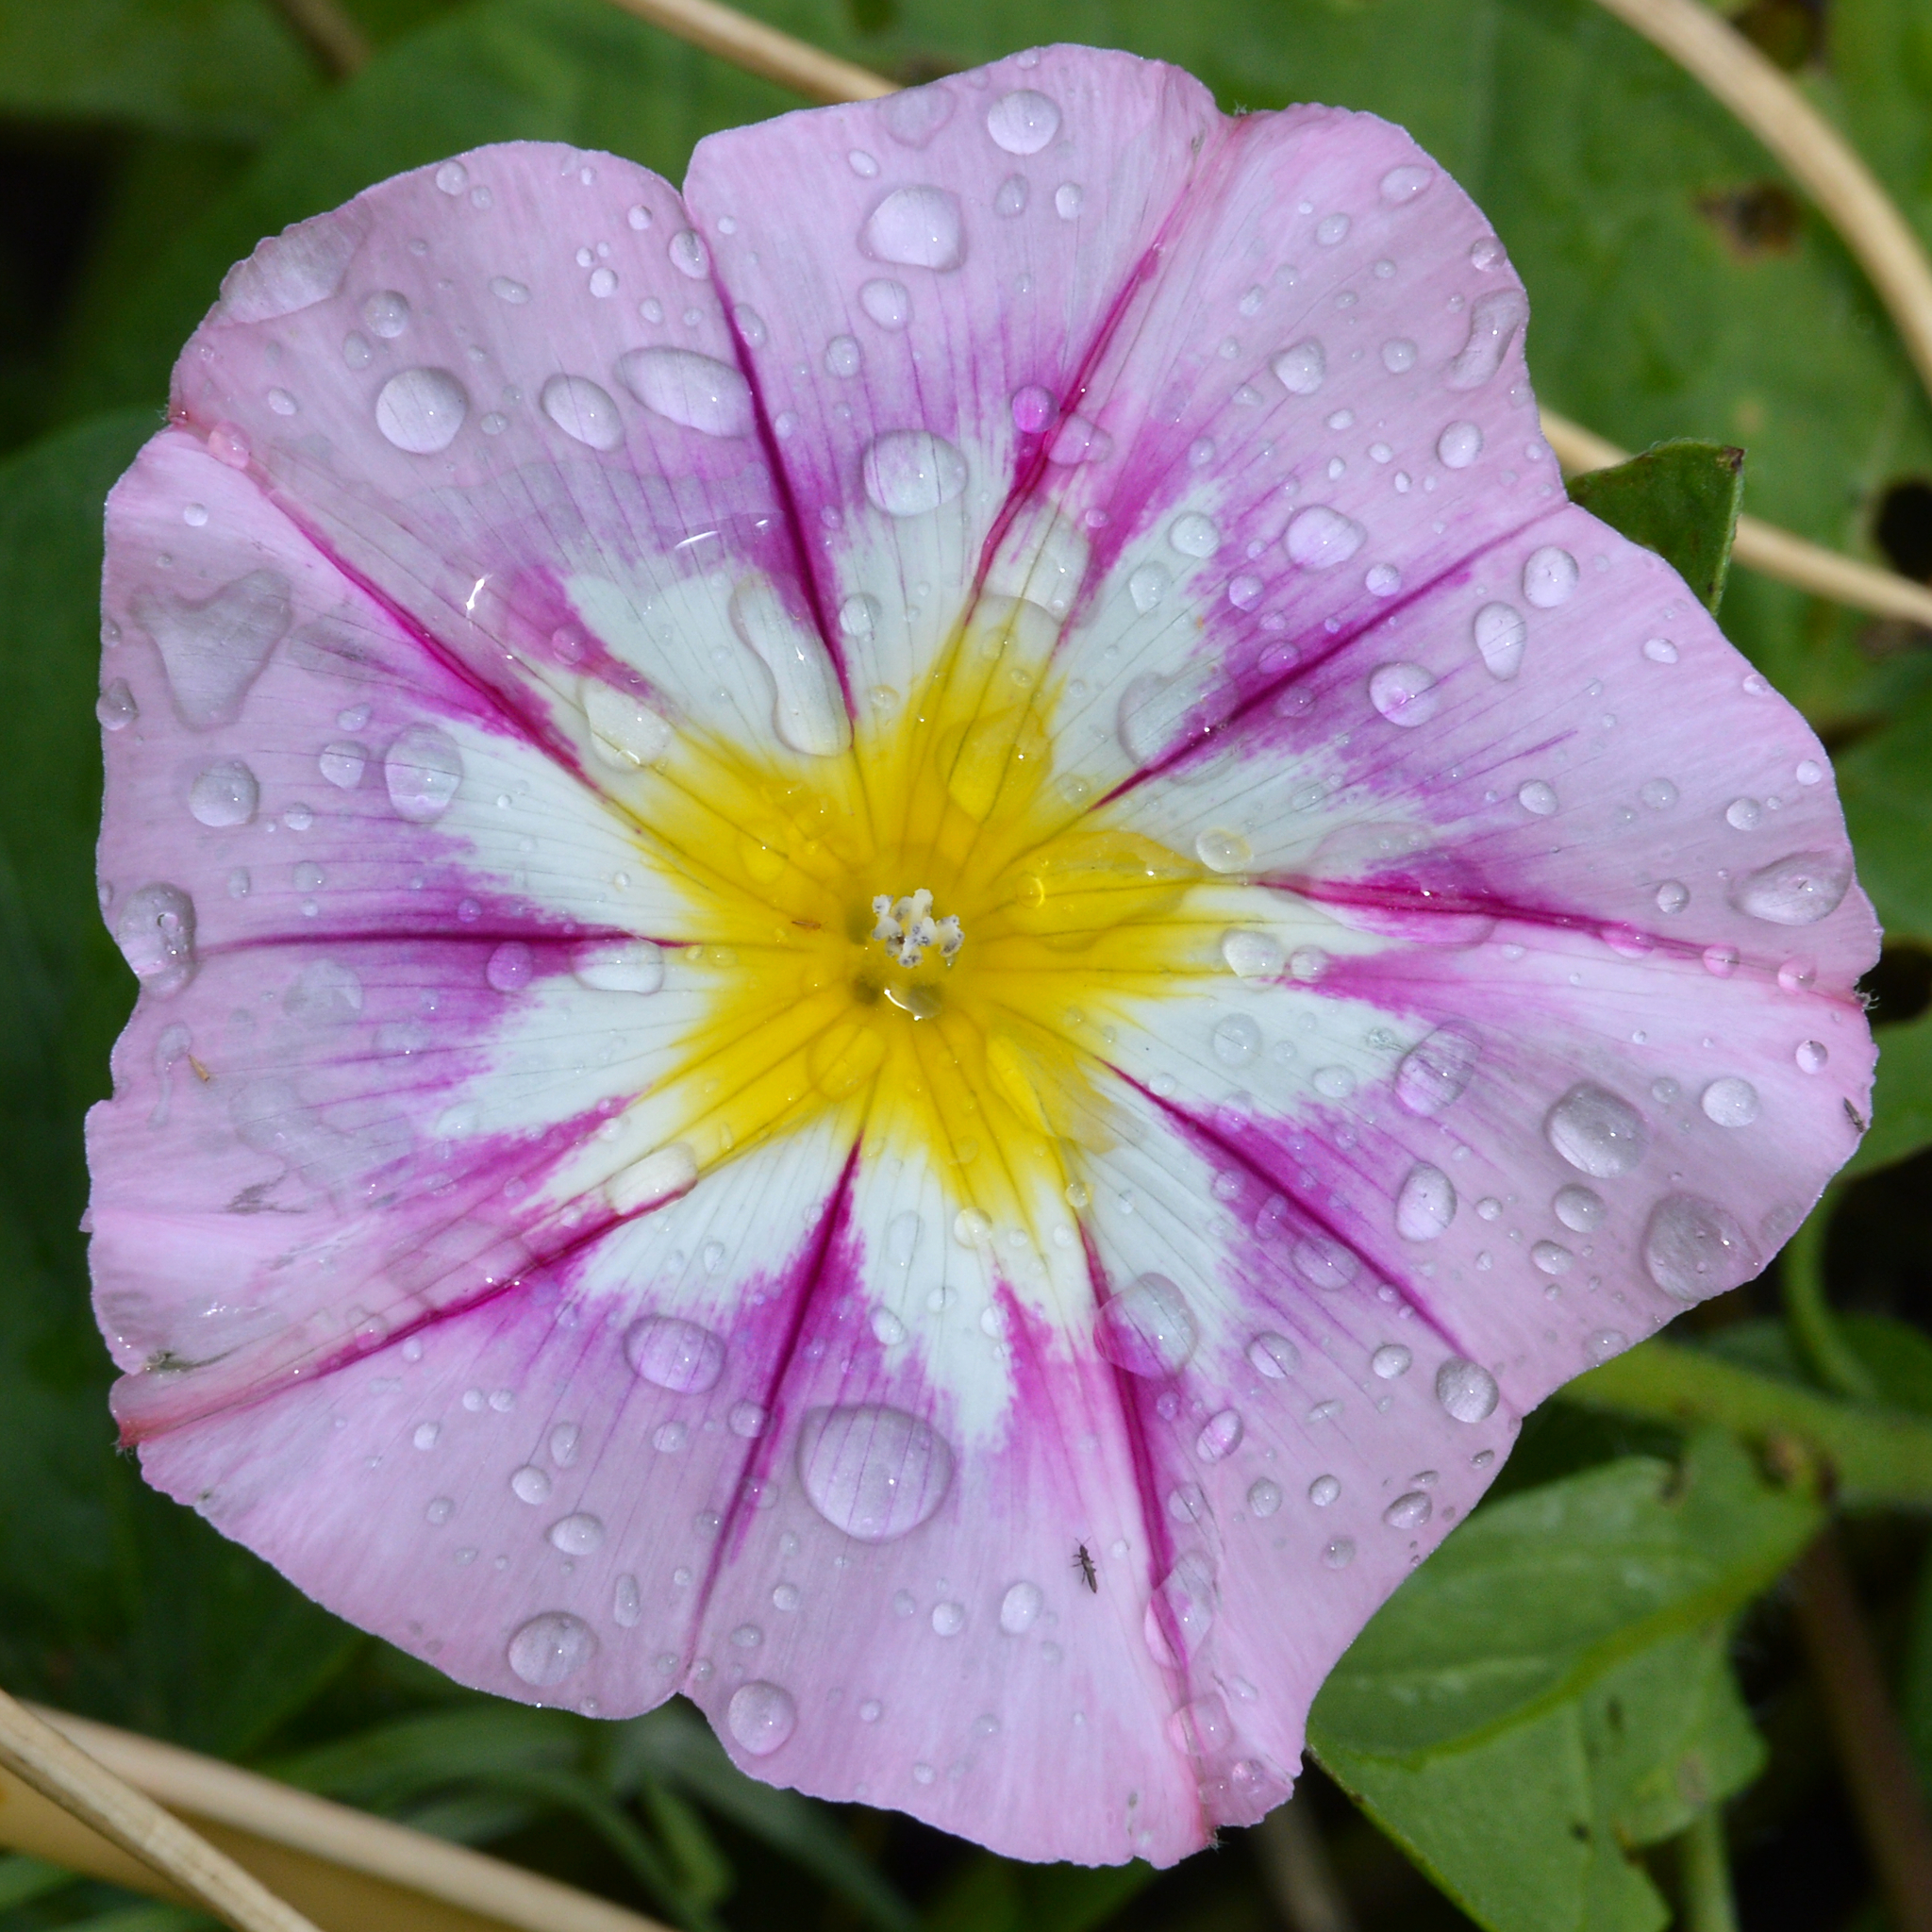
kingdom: Plantae
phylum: Tracheophyta
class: Magnoliopsida
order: Solanales
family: Convolvulaceae
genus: Convolvulus
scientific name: Convolvulus tricolor
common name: Dwarf morning-glory
